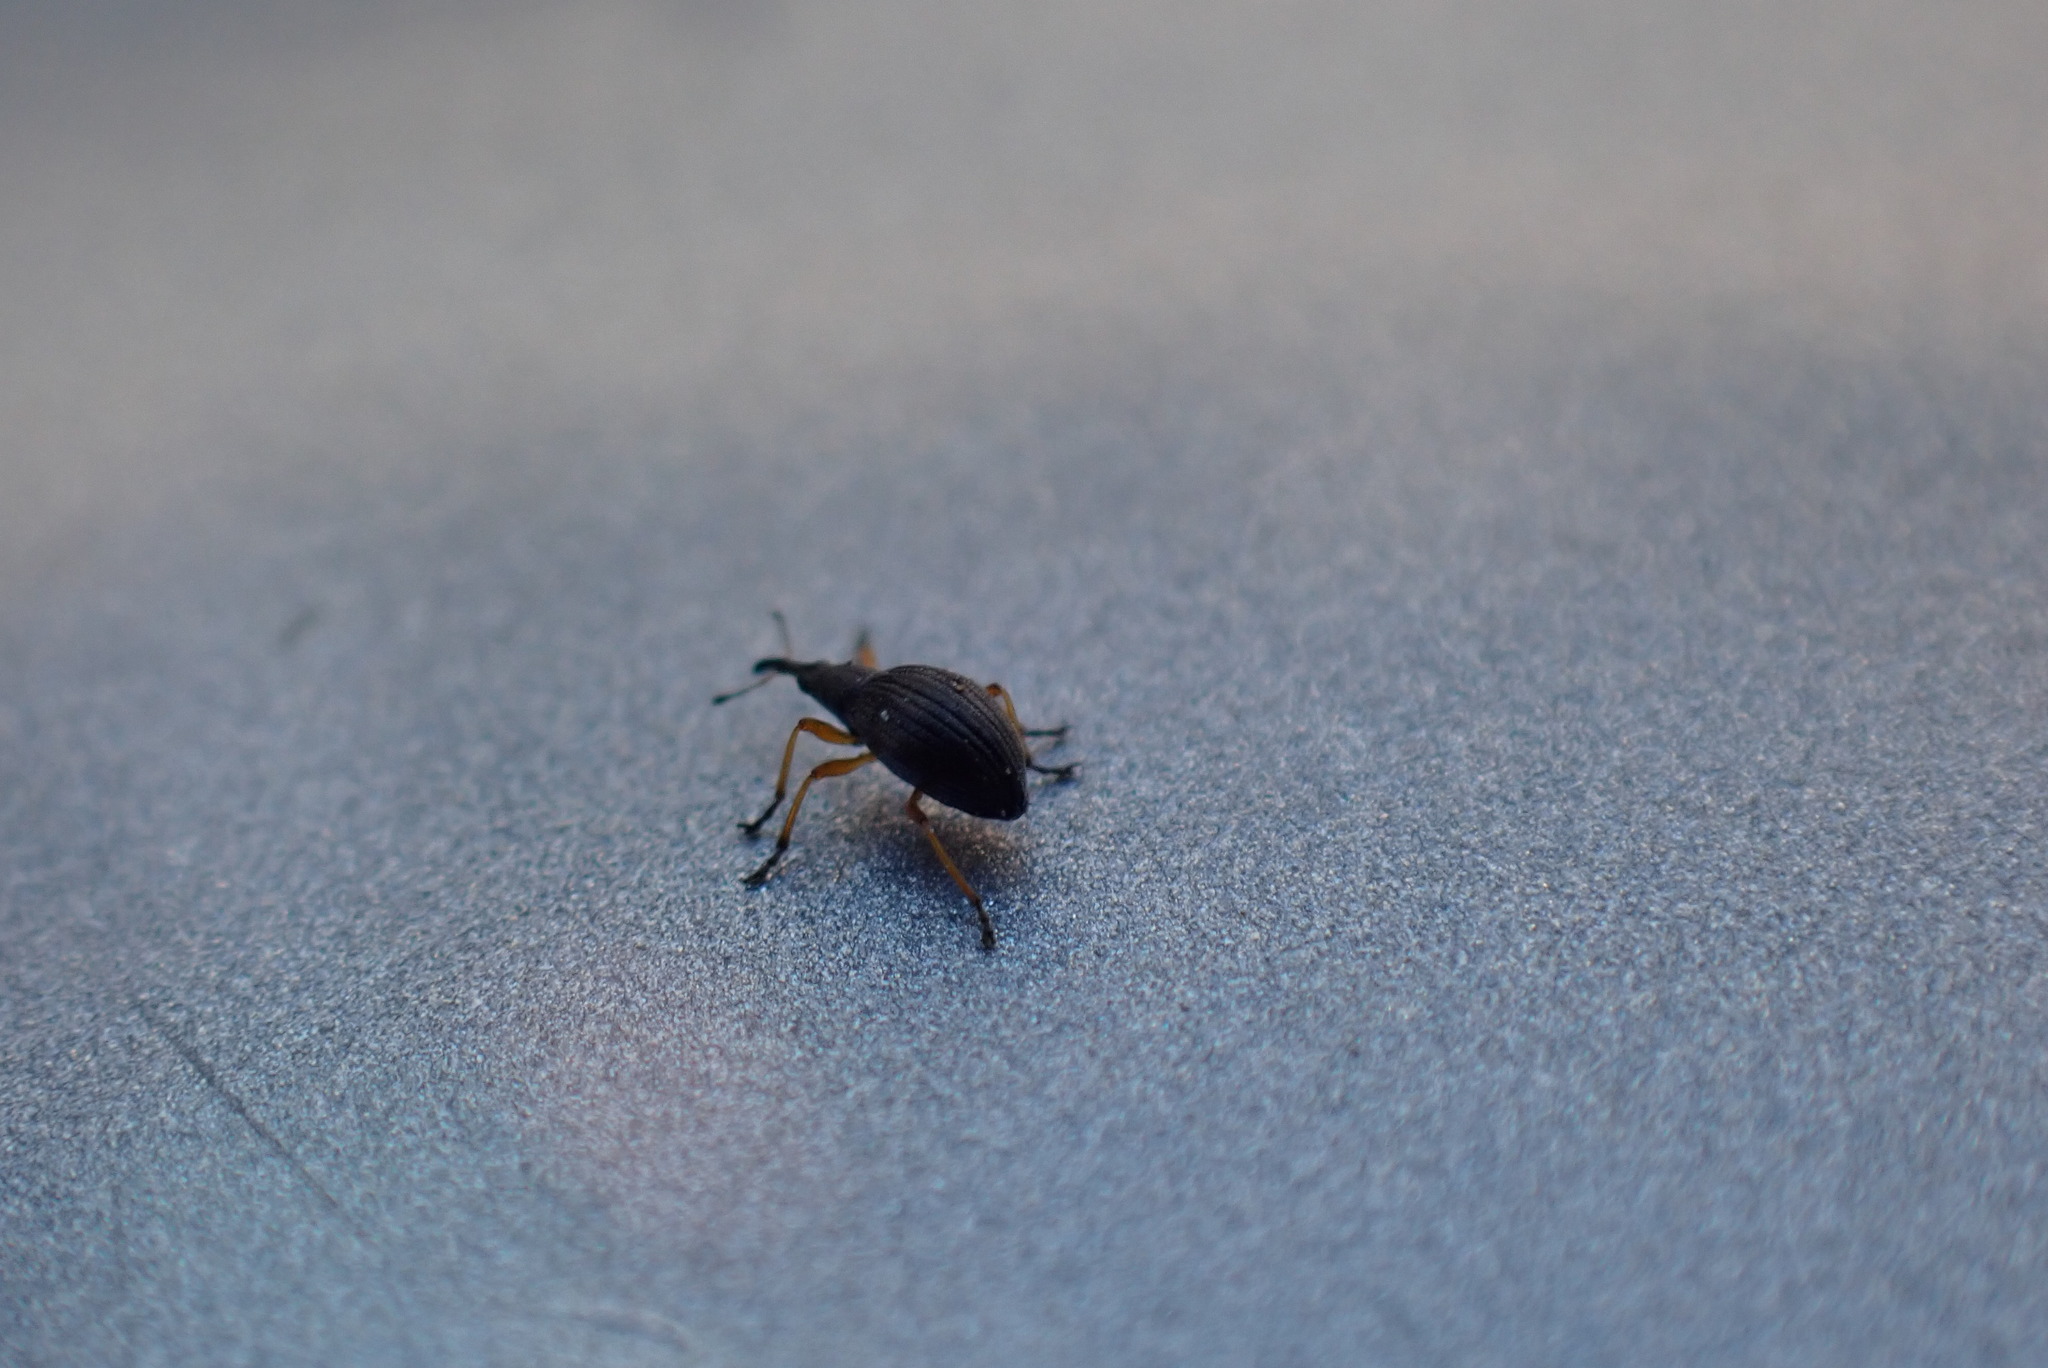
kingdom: Animalia
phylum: Arthropoda
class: Insecta
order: Coleoptera
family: Apionidae
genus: Protapion
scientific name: Protapion fulvipes
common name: White clover seed weevil
